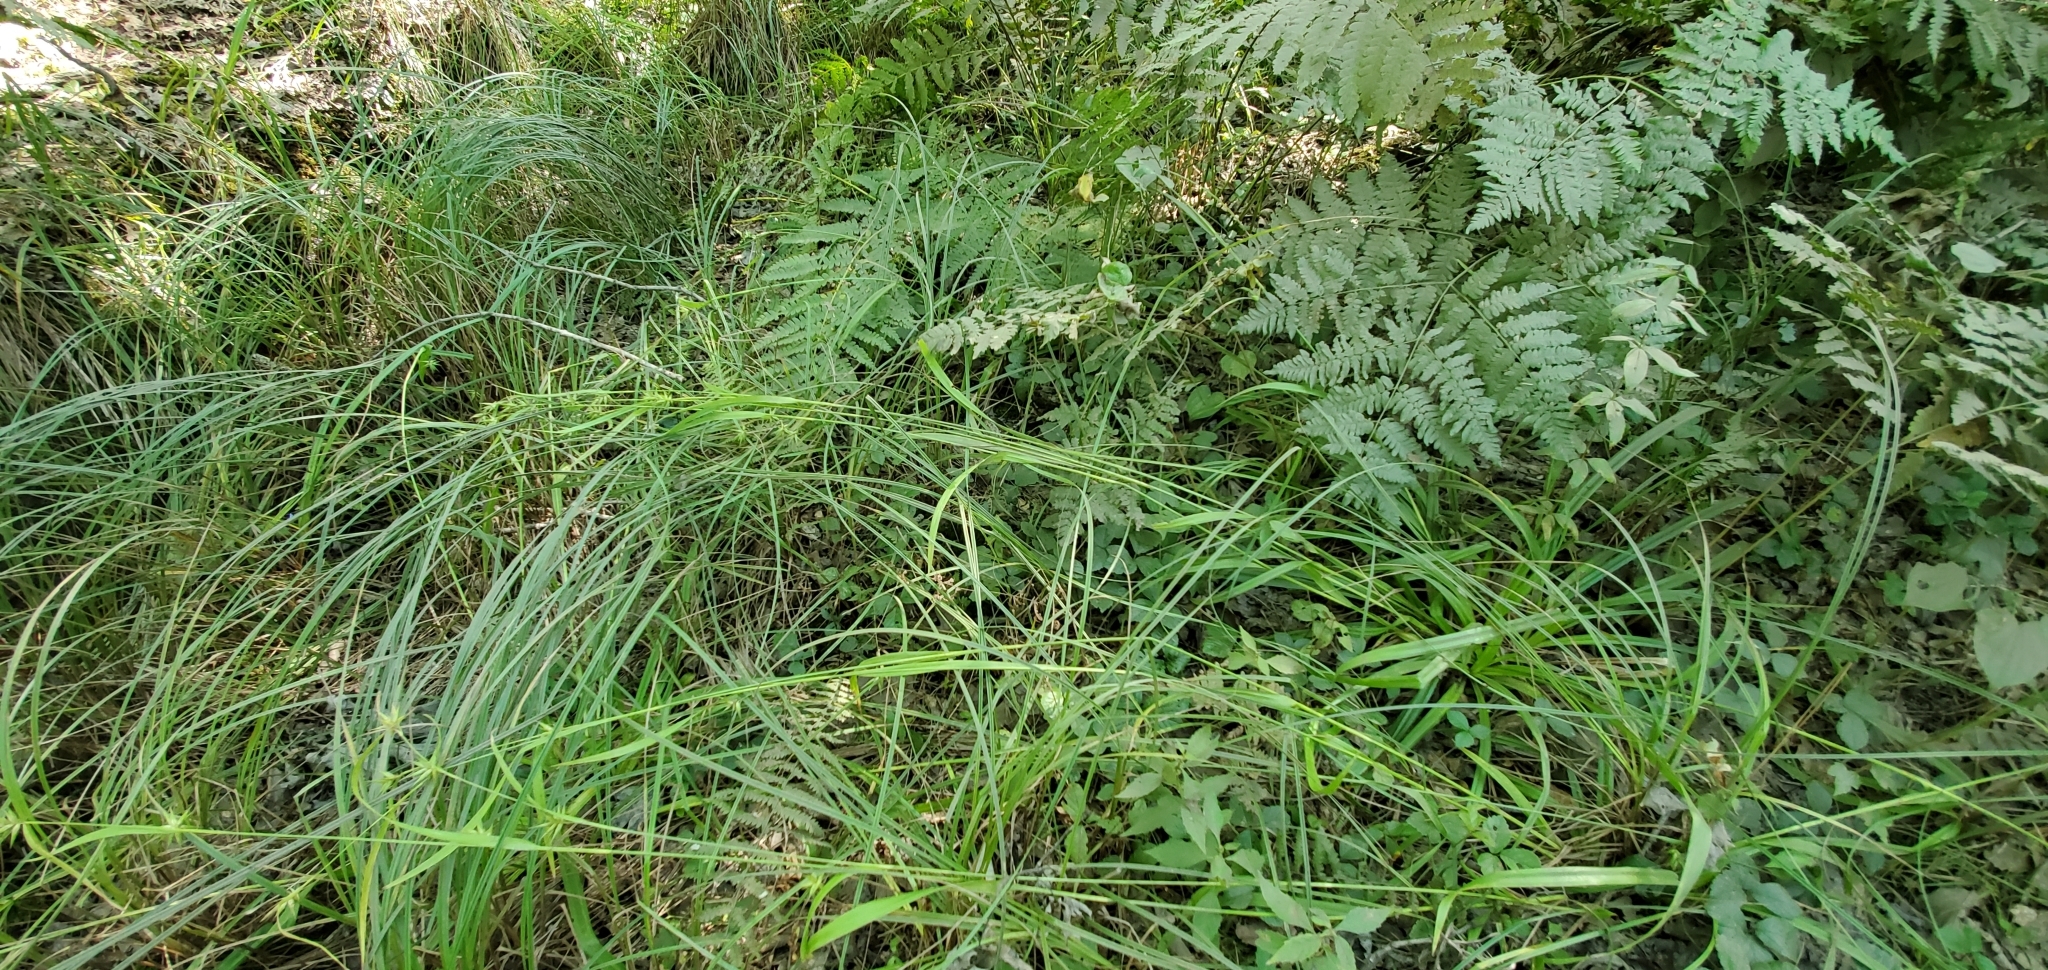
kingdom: Plantae
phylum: Tracheophyta
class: Liliopsida
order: Poales
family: Cyperaceae
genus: Carex
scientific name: Carex folliculata
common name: Northern long sedge
